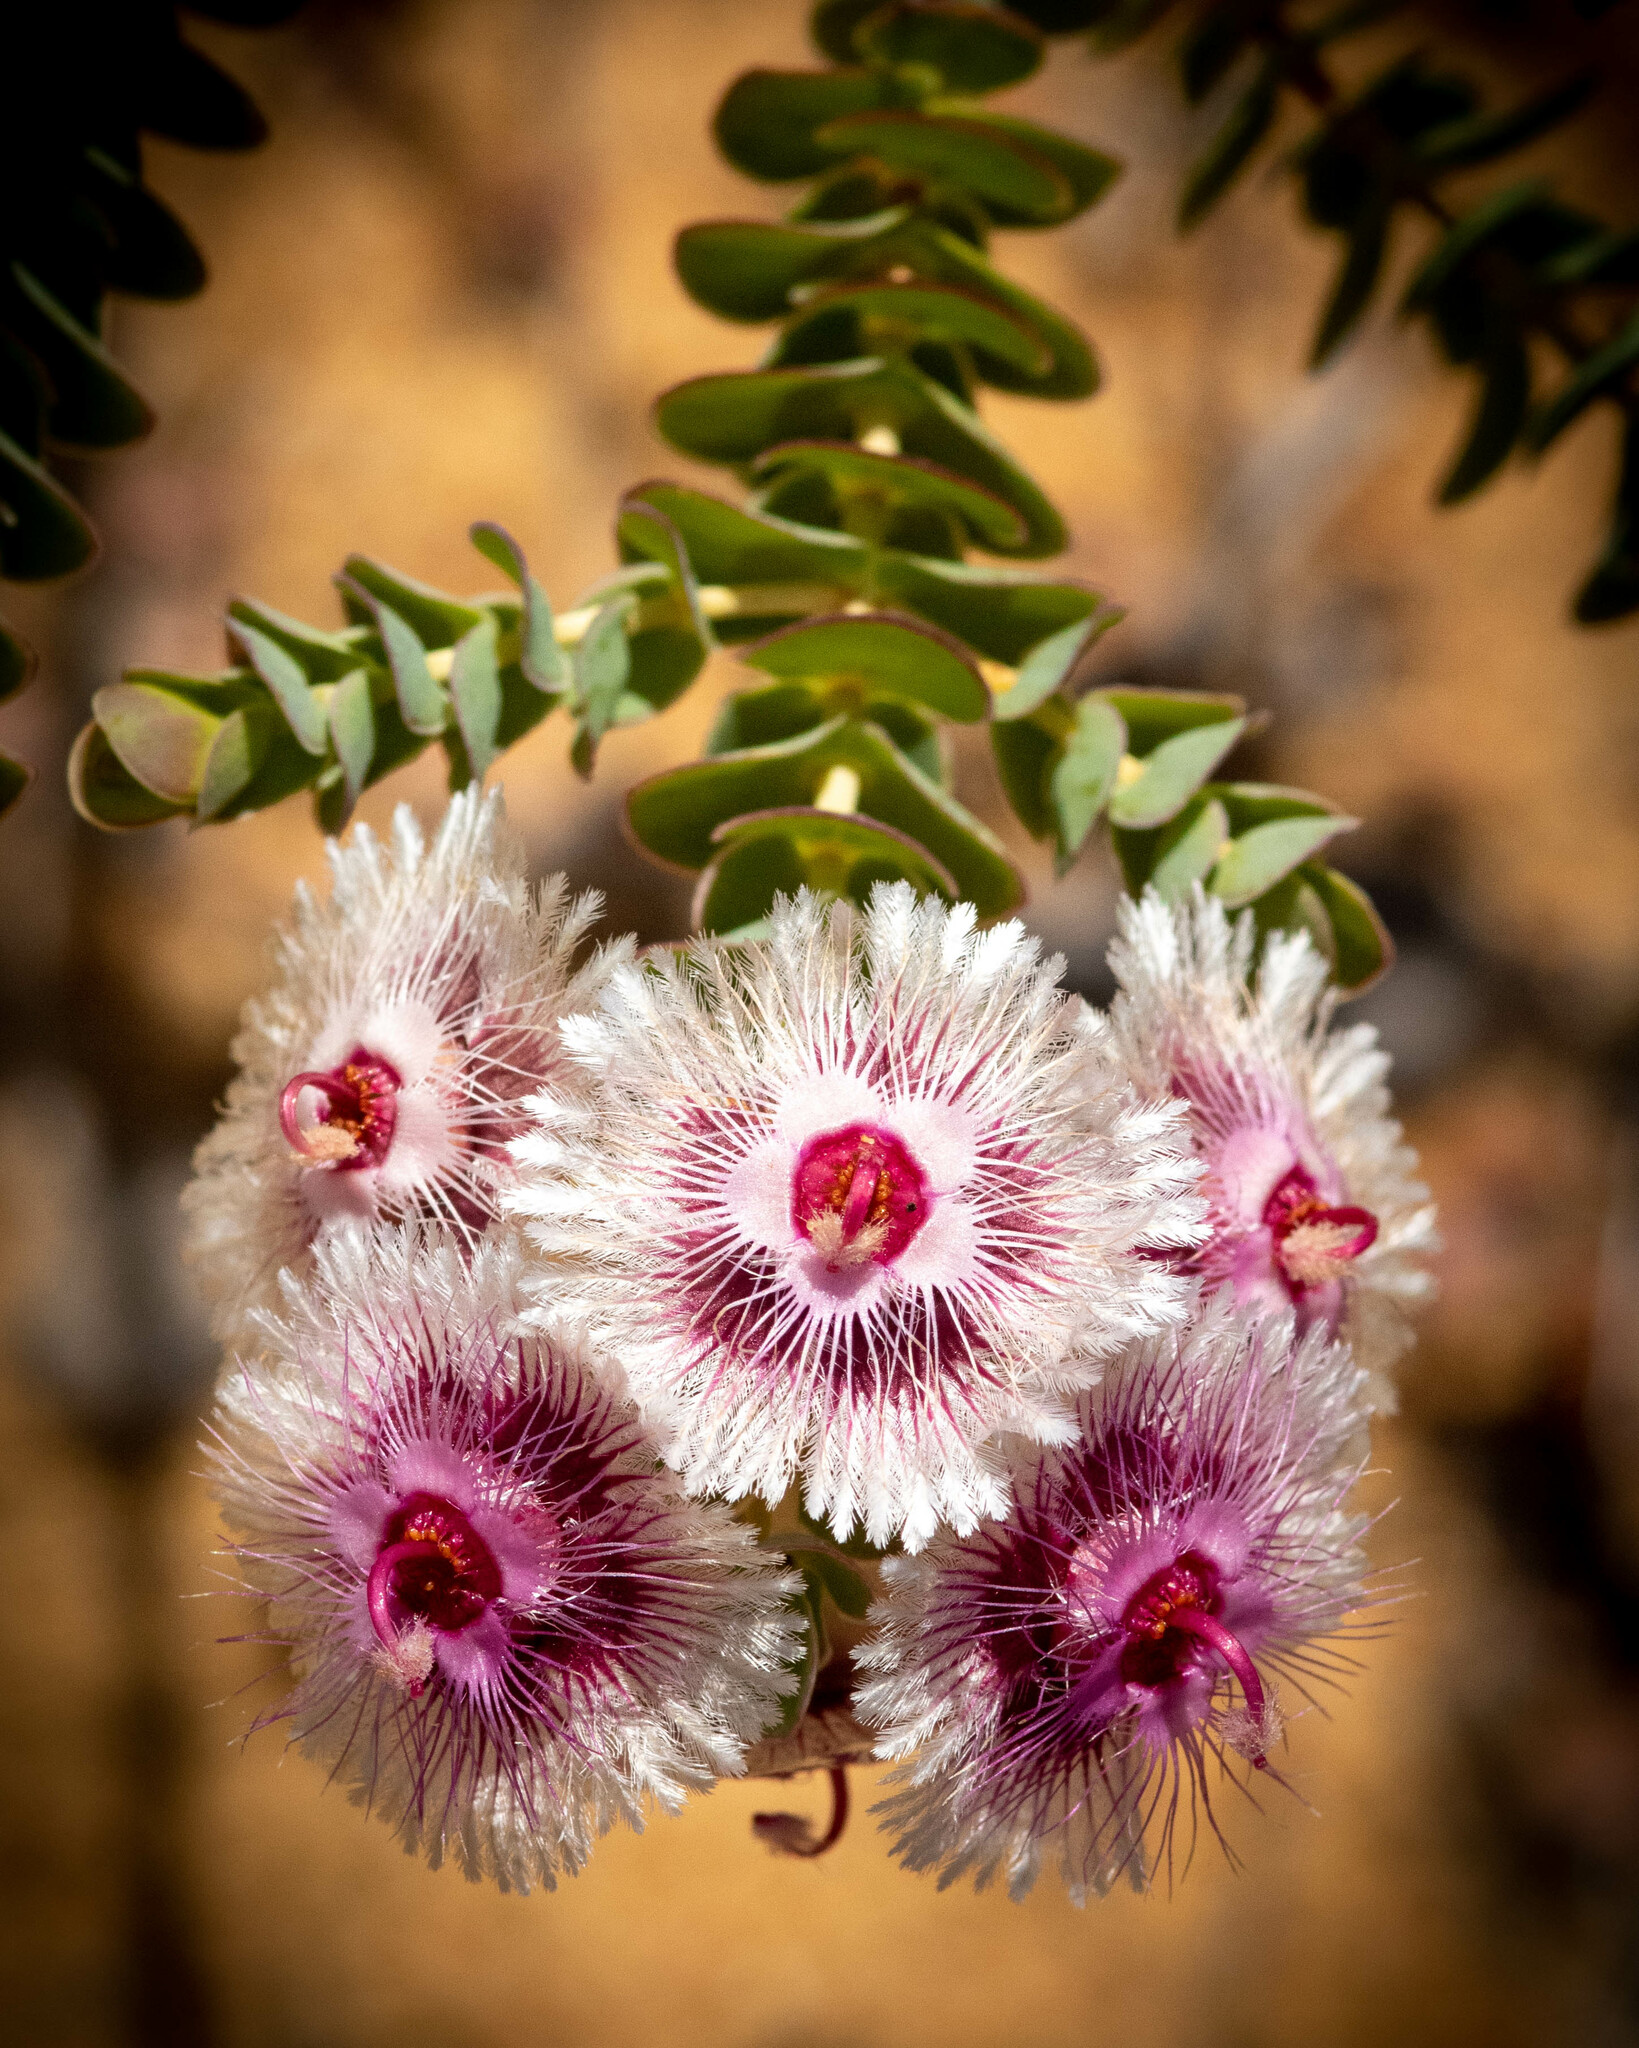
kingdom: Plantae
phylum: Tracheophyta
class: Magnoliopsida
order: Myrtales
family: Myrtaceae
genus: Verticordia
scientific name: Verticordia oculata
